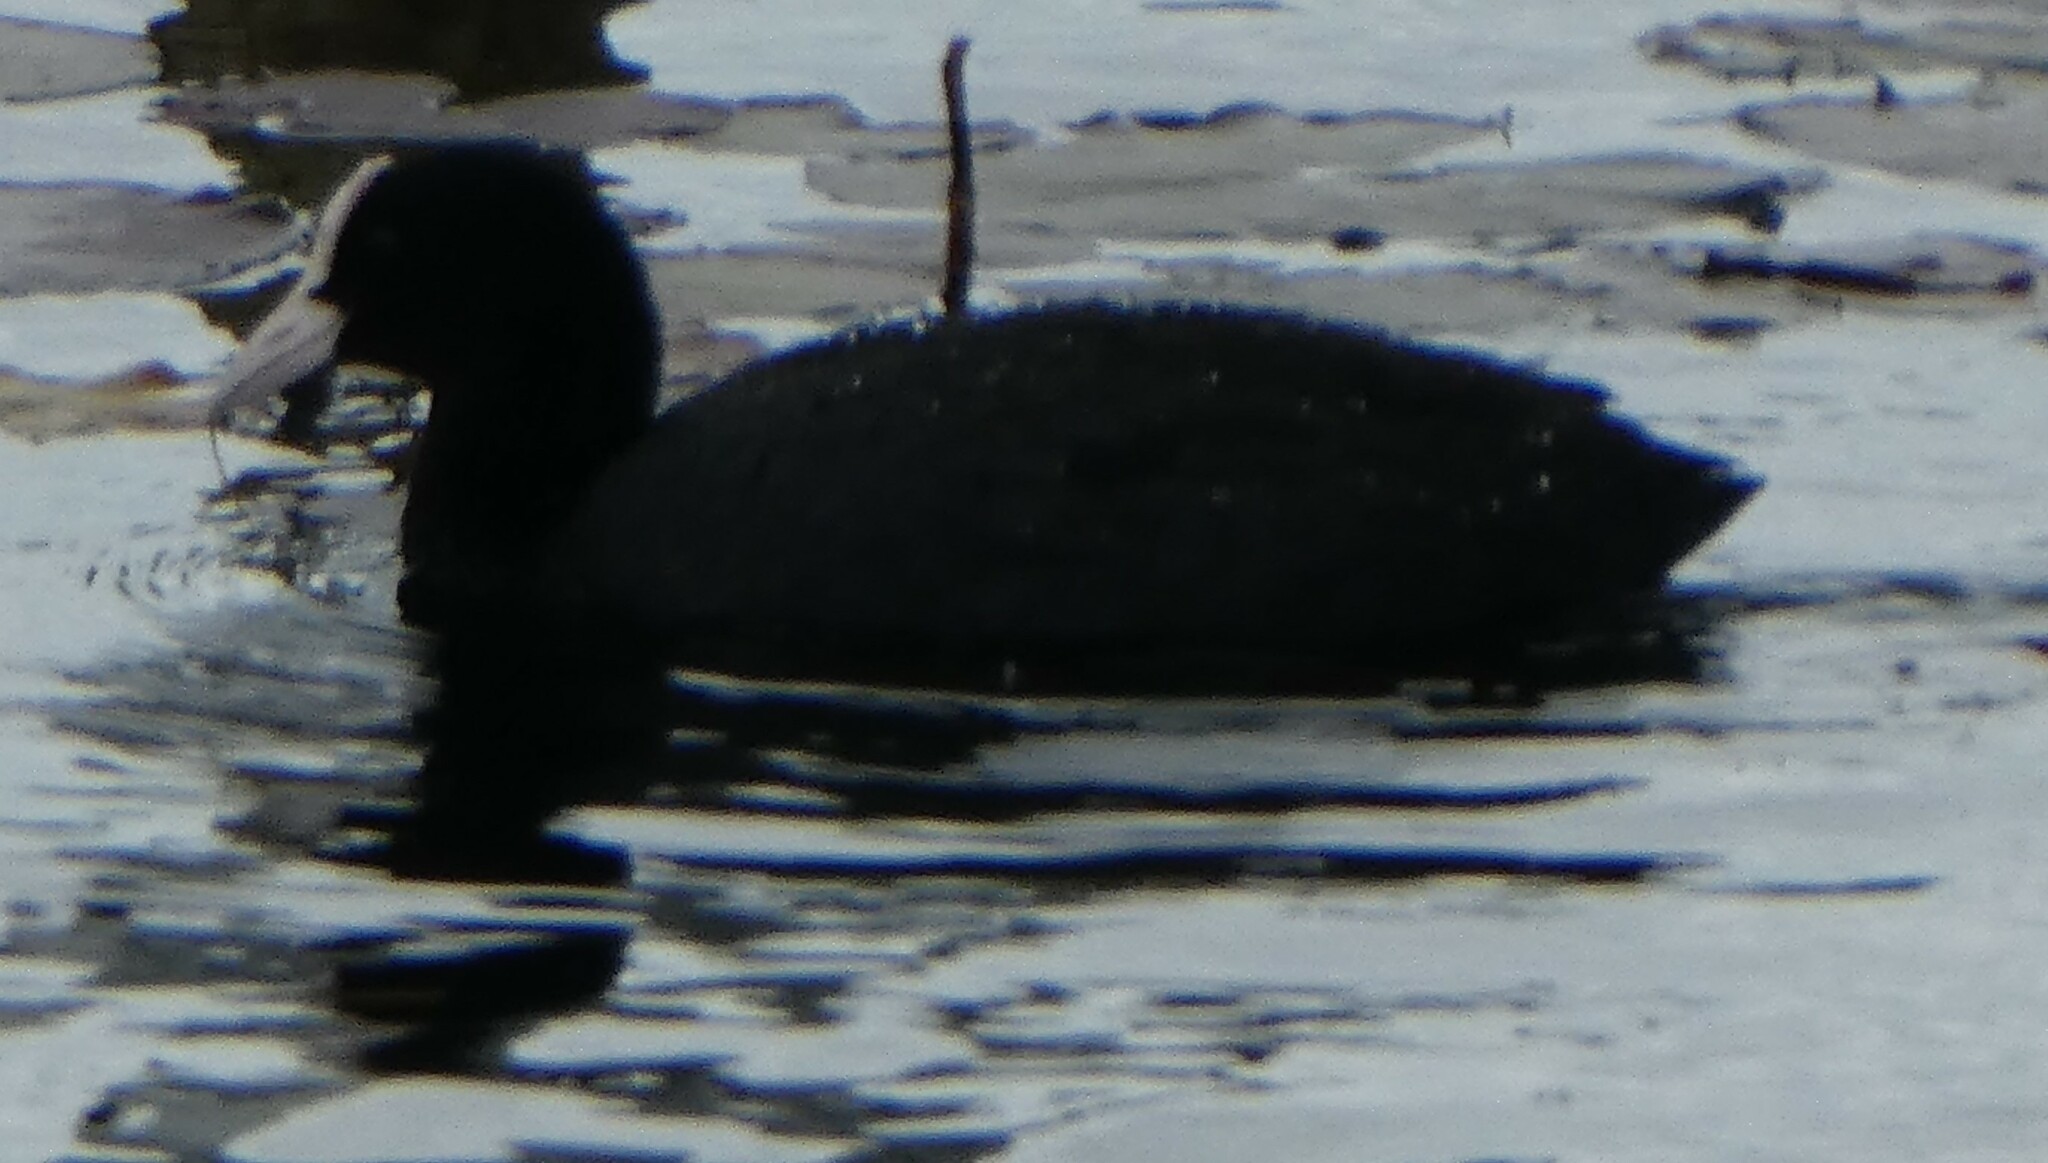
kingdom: Animalia
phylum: Chordata
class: Aves
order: Gruiformes
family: Rallidae
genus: Fulica
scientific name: Fulica atra
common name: Eurasian coot
